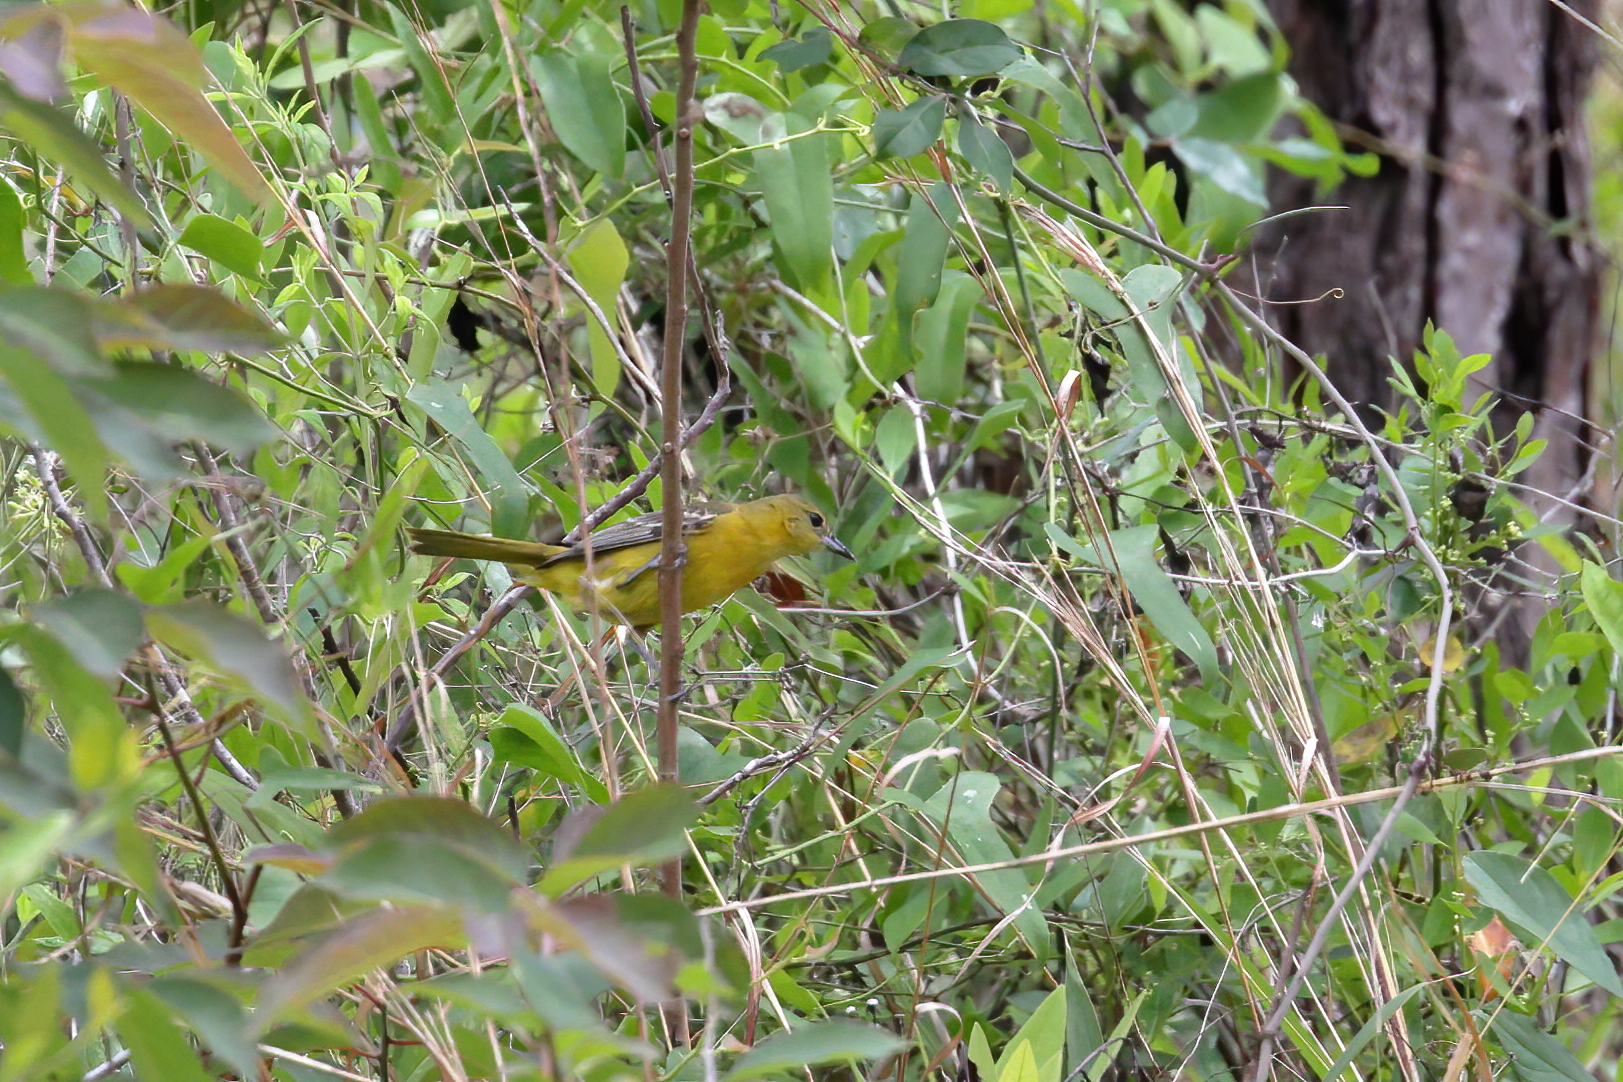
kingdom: Animalia
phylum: Chordata
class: Aves
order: Passeriformes
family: Icteridae
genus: Icterus
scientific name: Icterus spurius
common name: Orchard oriole
